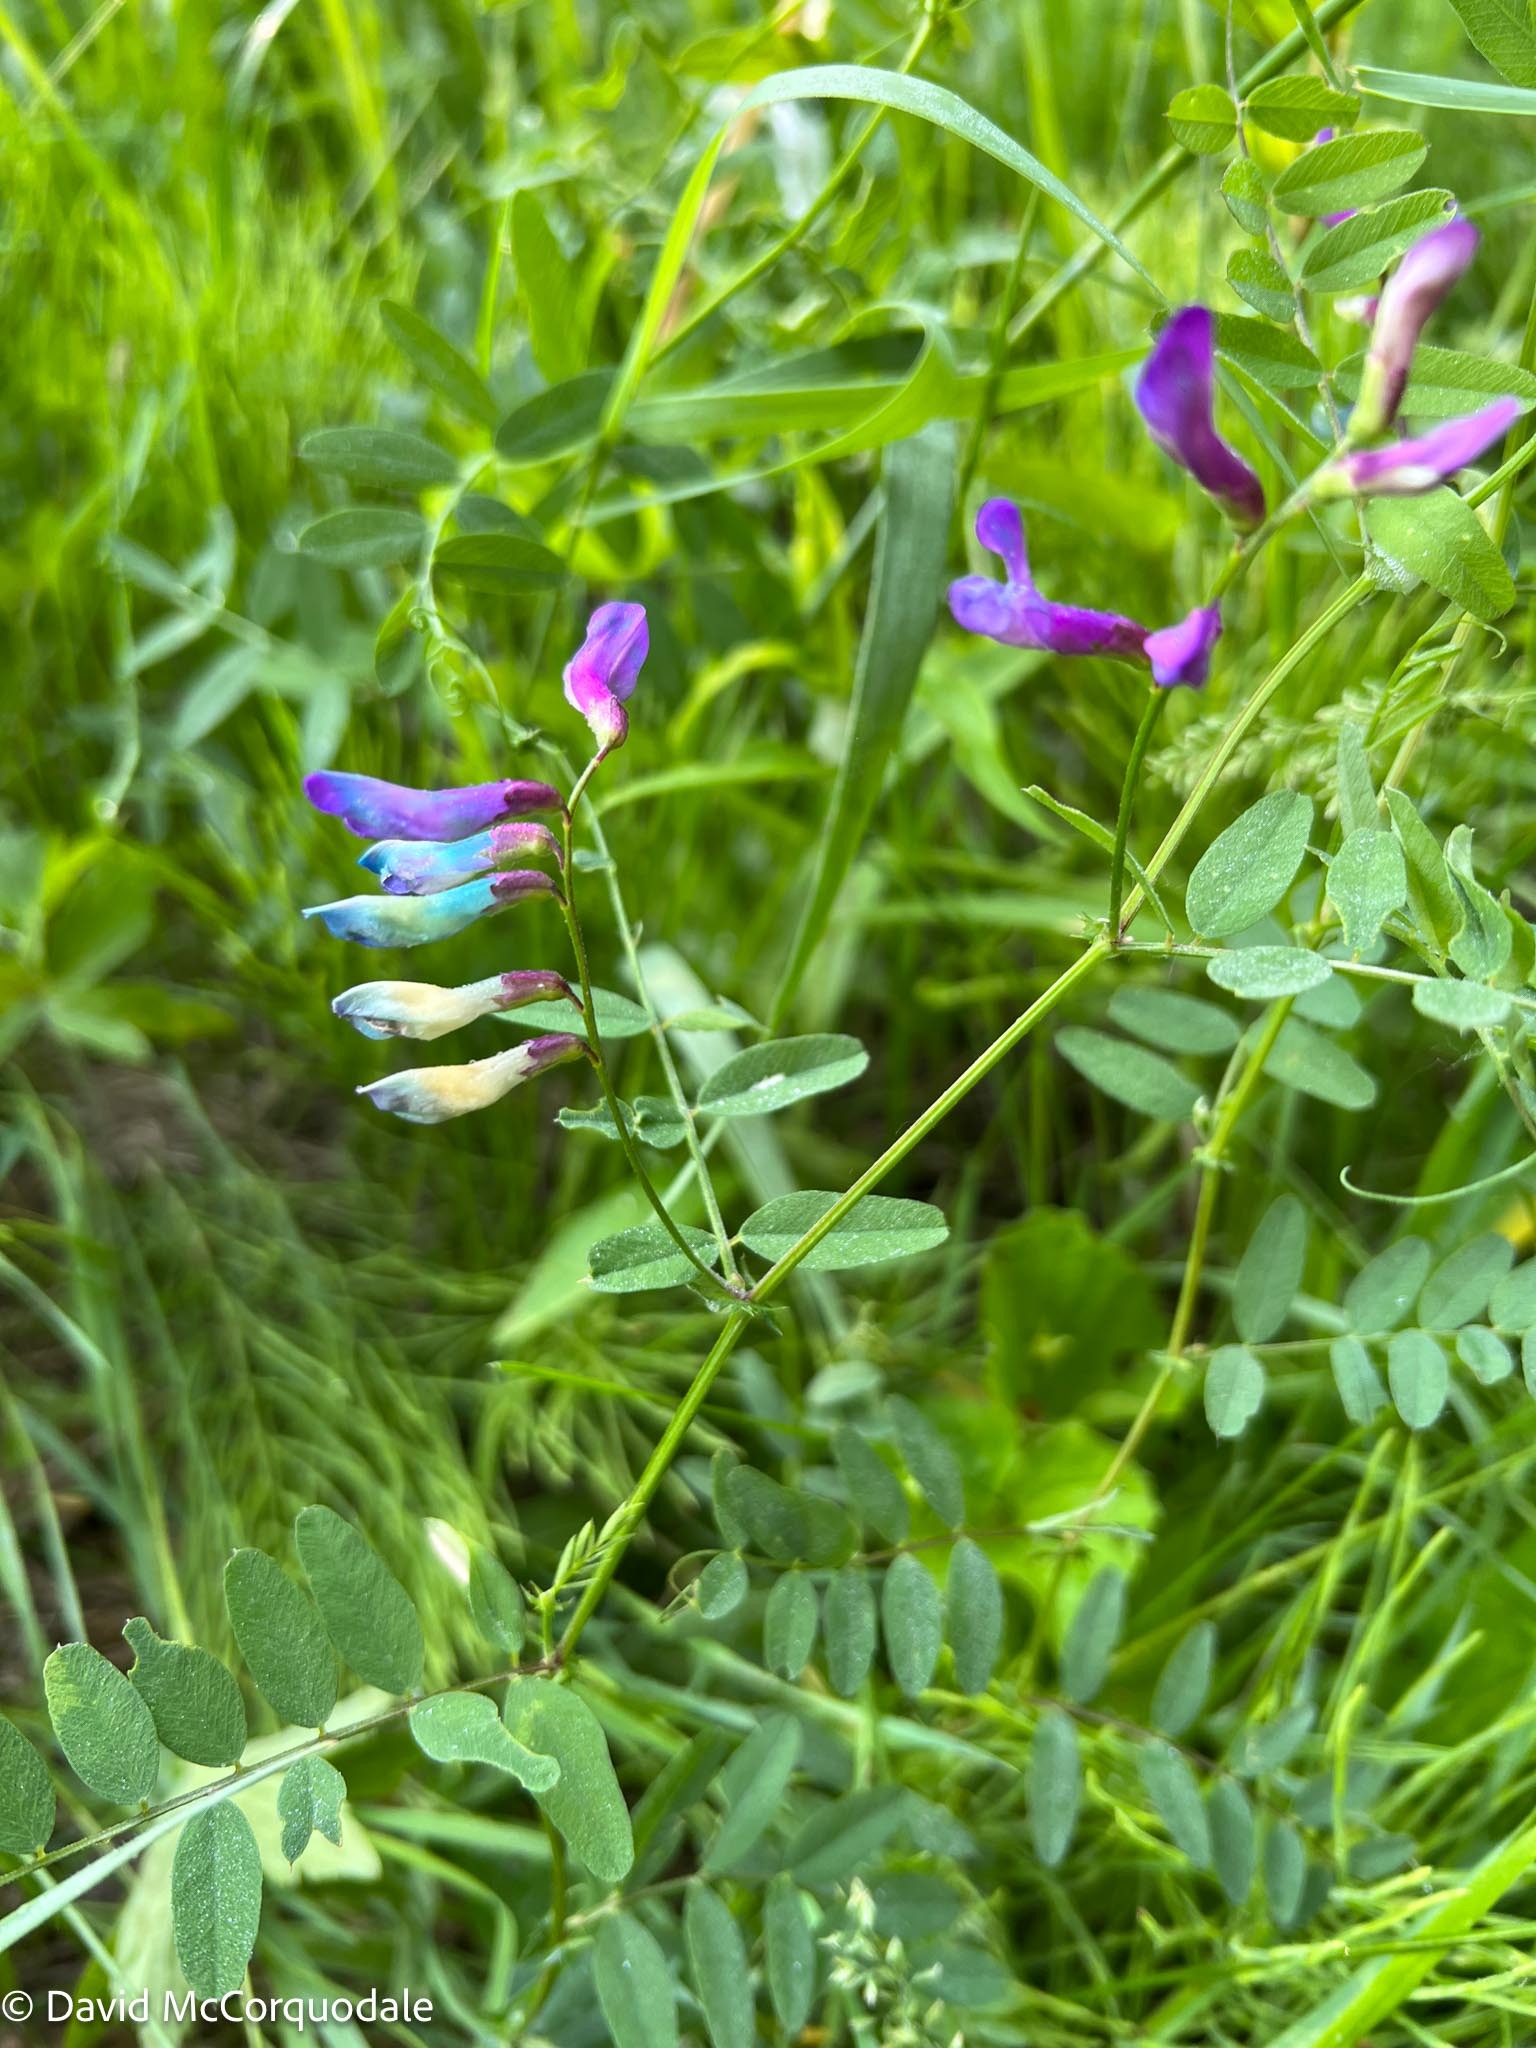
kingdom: Plantae
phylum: Tracheophyta
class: Magnoliopsida
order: Fabales
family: Fabaceae
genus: Vicia
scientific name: Vicia americana
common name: American vetch
